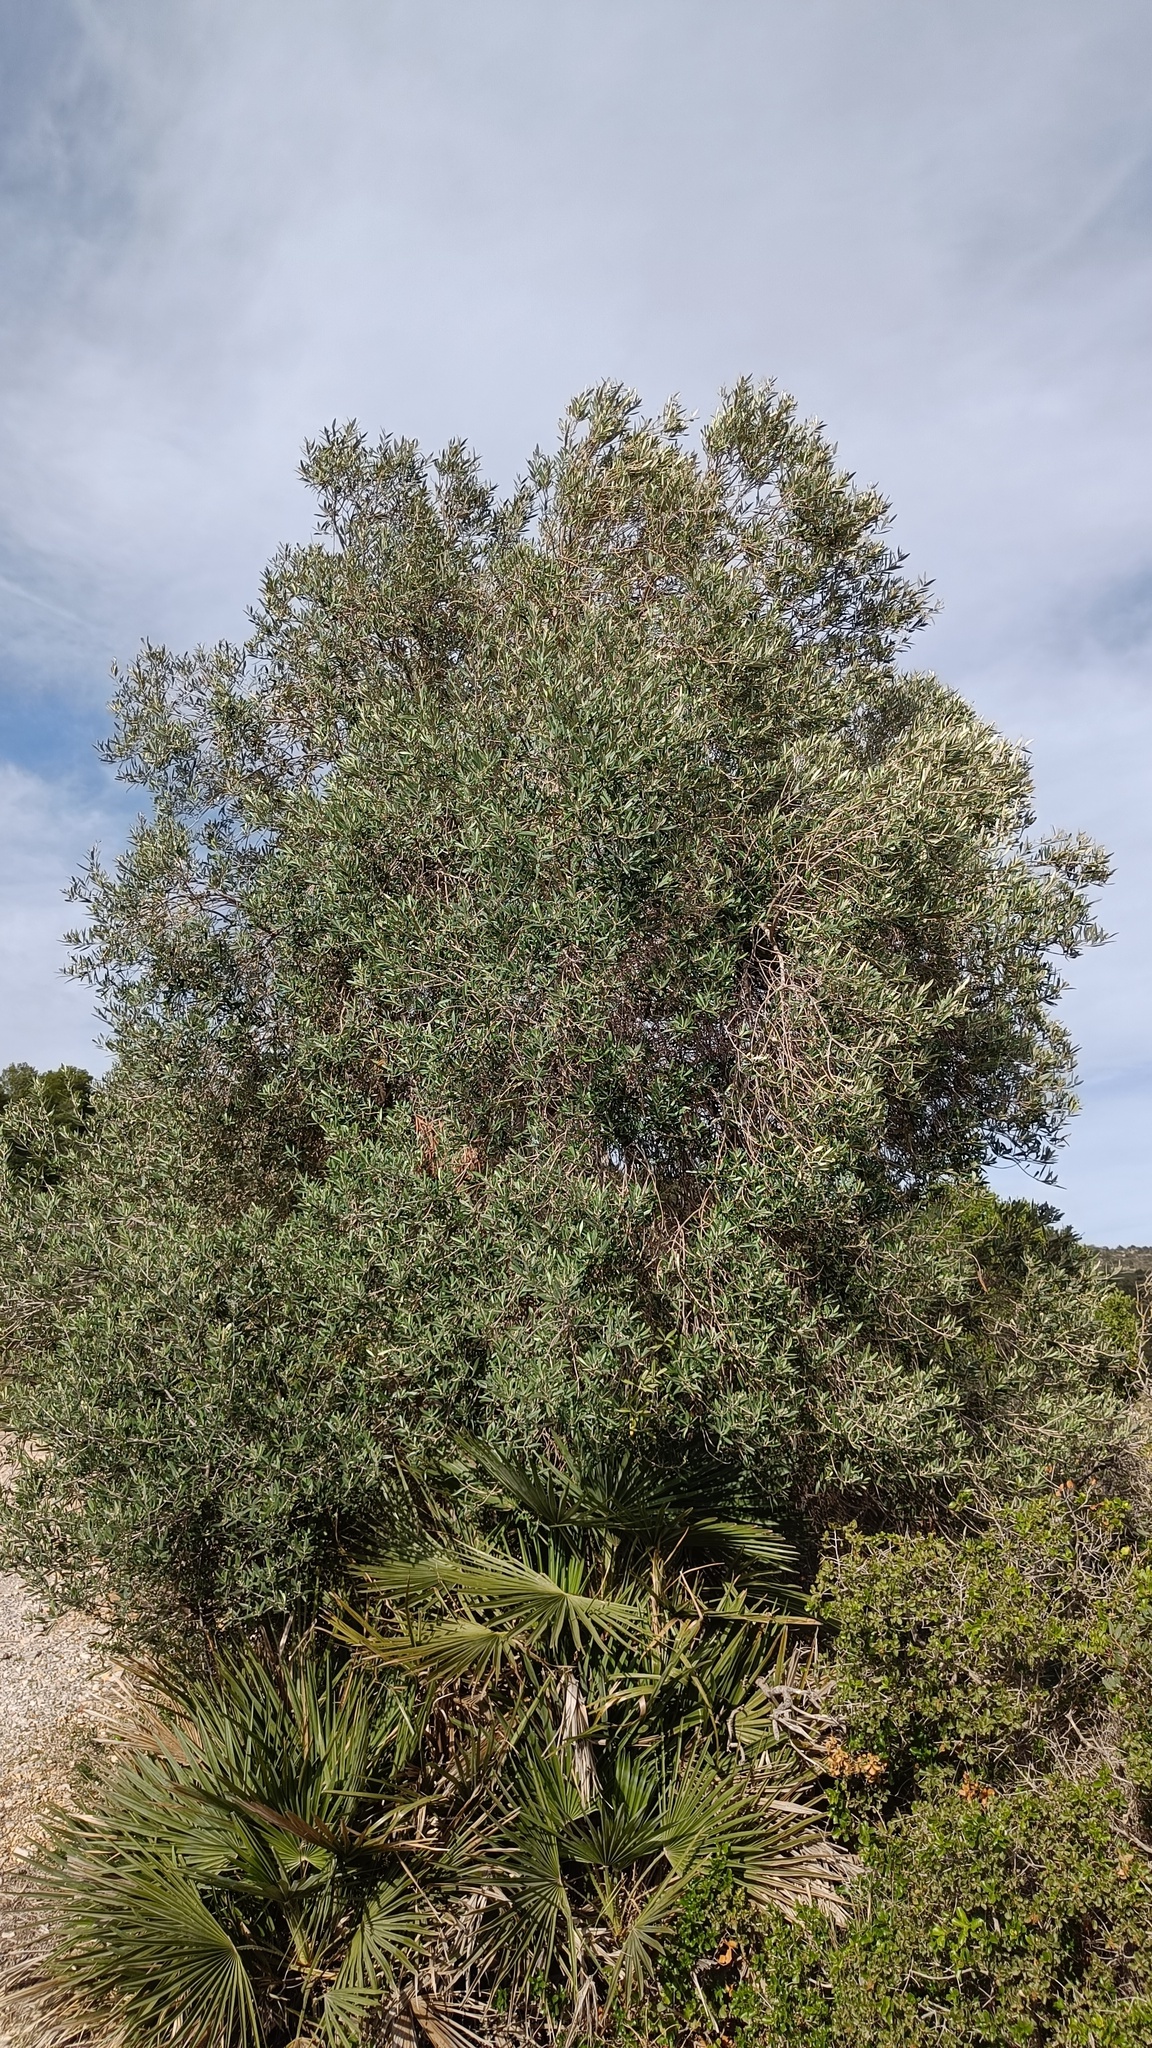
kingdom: Plantae
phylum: Tracheophyta
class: Magnoliopsida
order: Lamiales
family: Oleaceae
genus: Olea
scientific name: Olea europaea
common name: Olive
